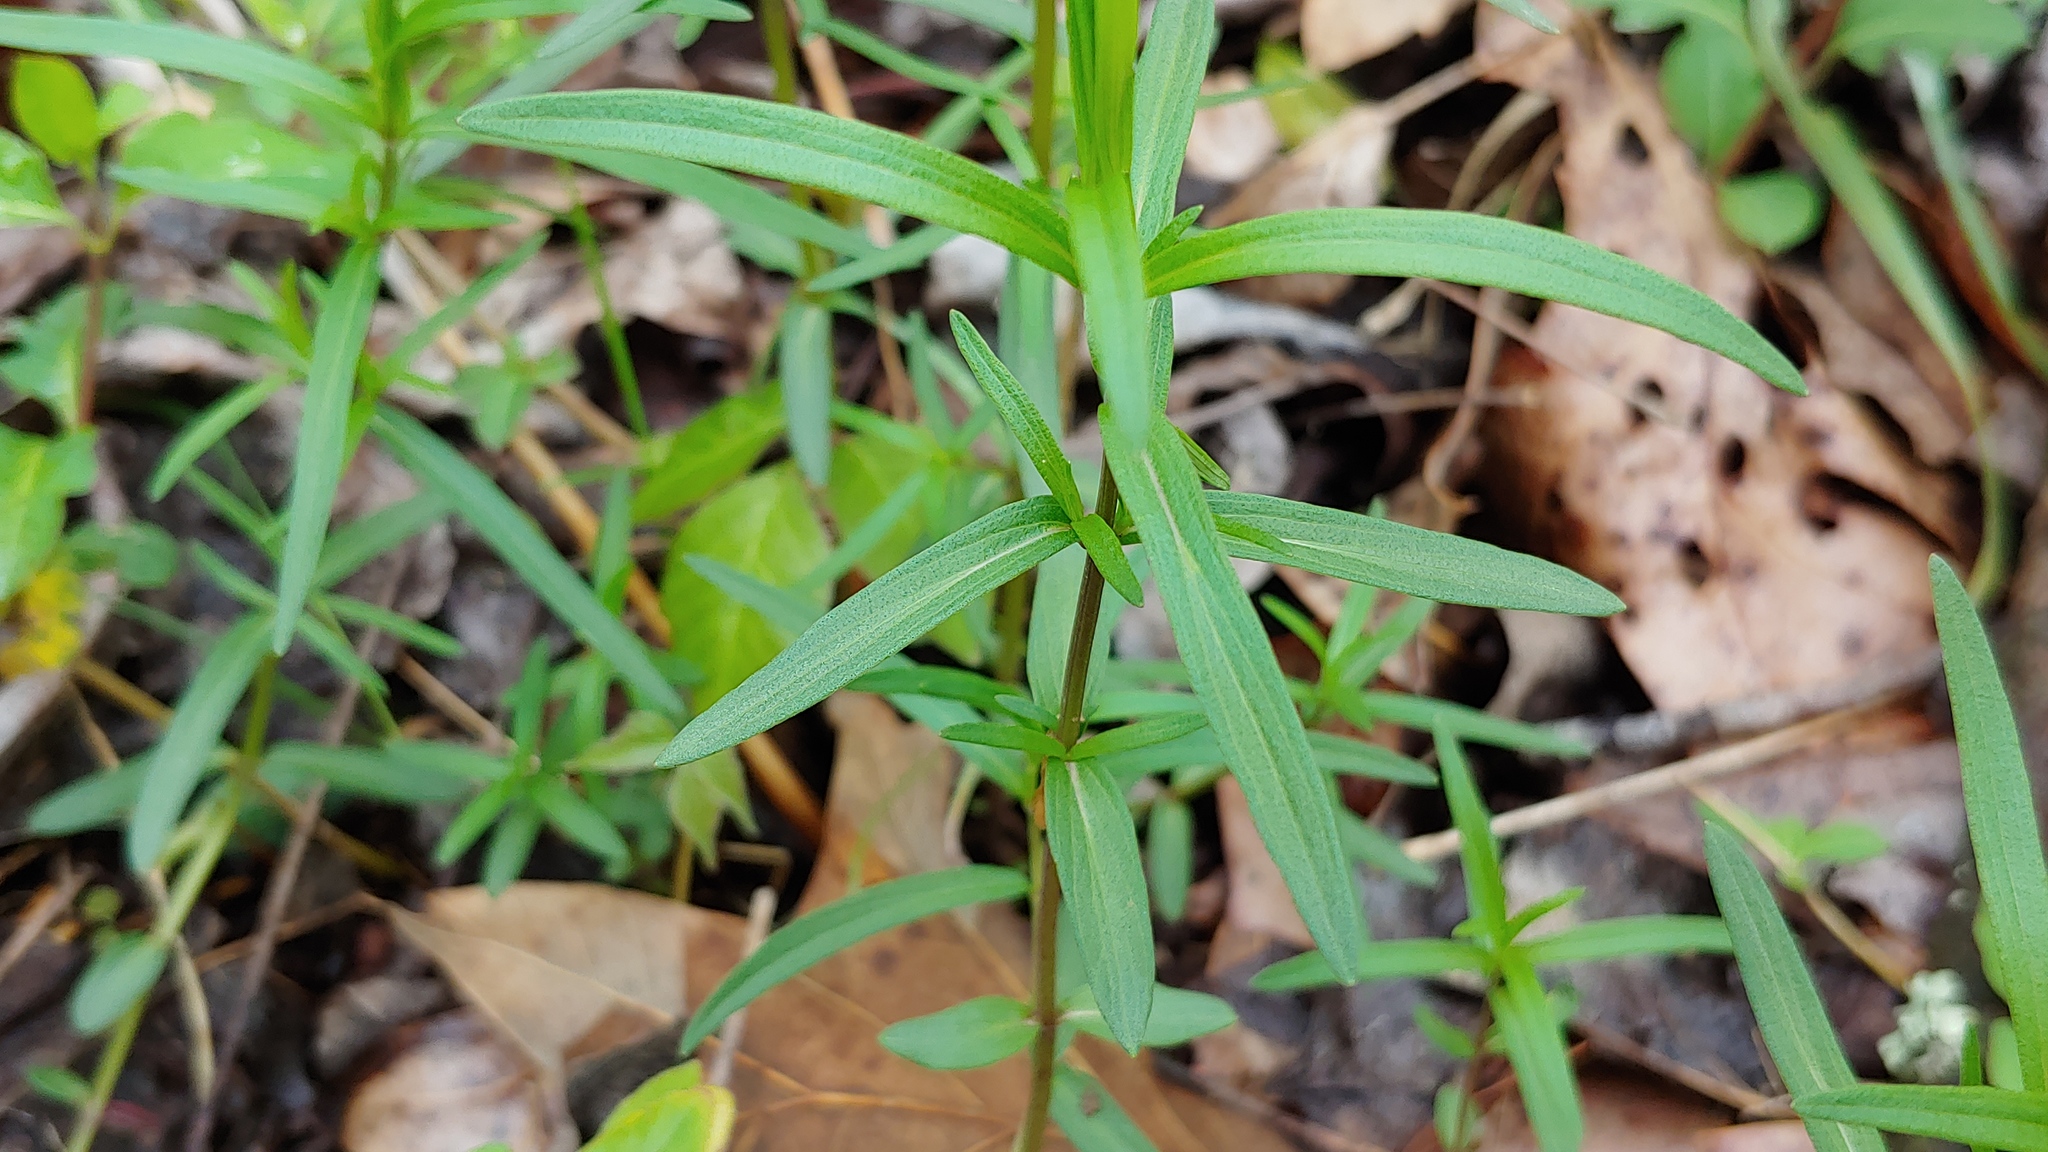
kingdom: Plantae
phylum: Tracheophyta
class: Magnoliopsida
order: Gentianales
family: Rubiaceae
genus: Houstonia
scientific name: Houstonia longifolia
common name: Long-leaved bluets
